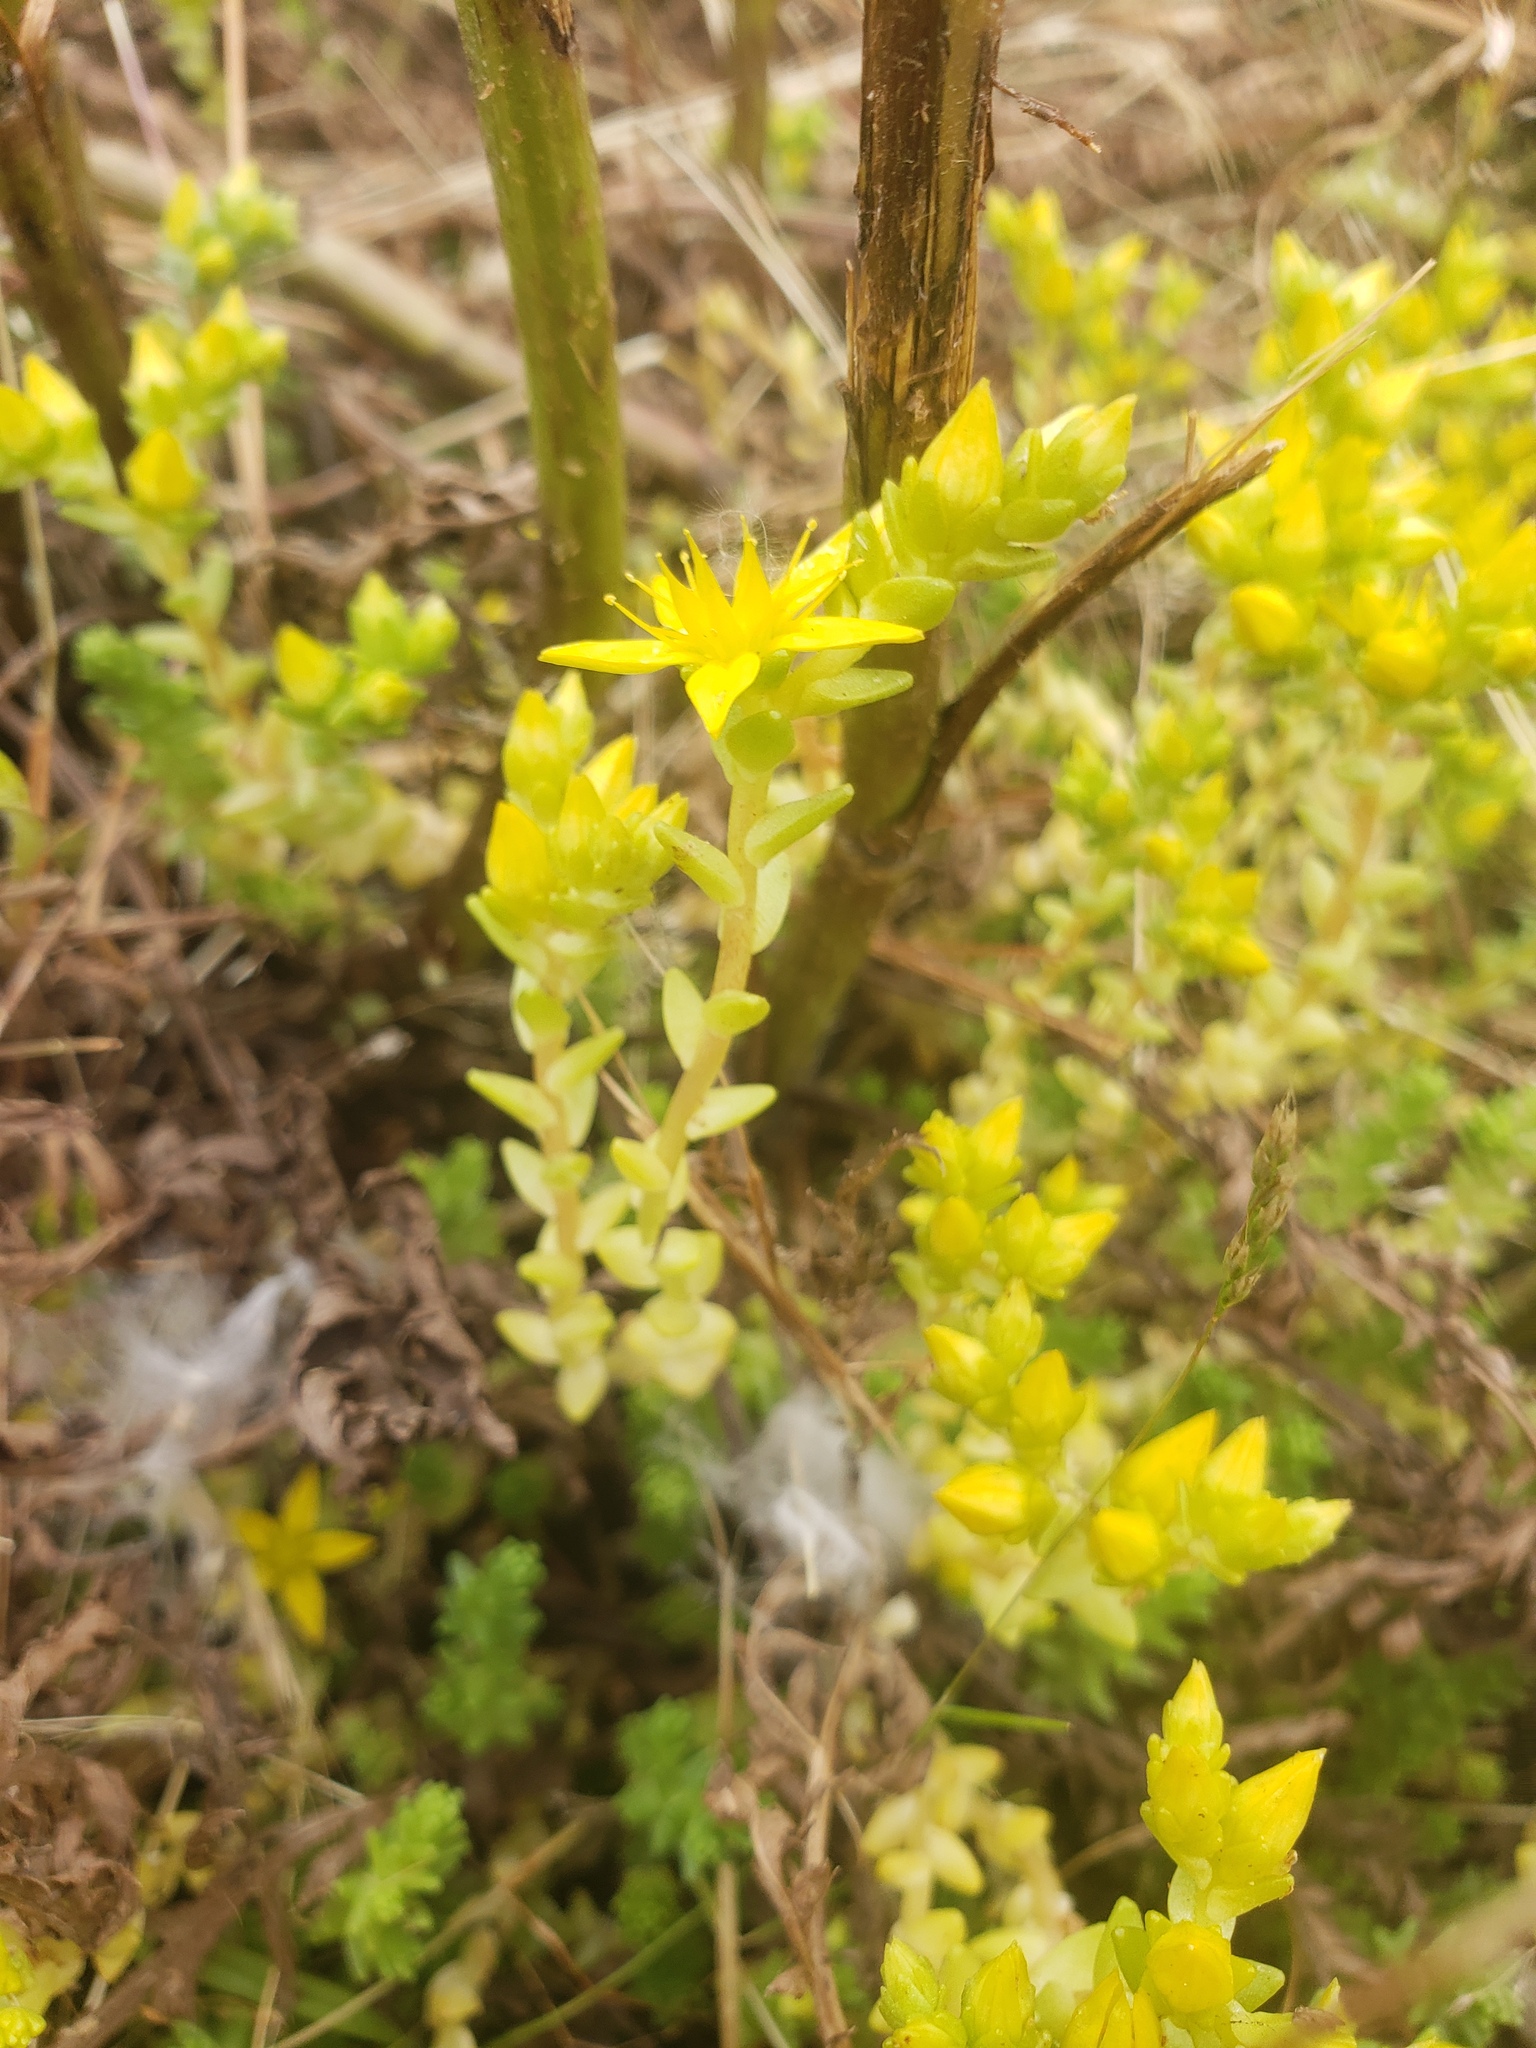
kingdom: Plantae
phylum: Tracheophyta
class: Magnoliopsida
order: Saxifragales
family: Crassulaceae
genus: Sedum
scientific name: Sedum acre
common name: Biting stonecrop
